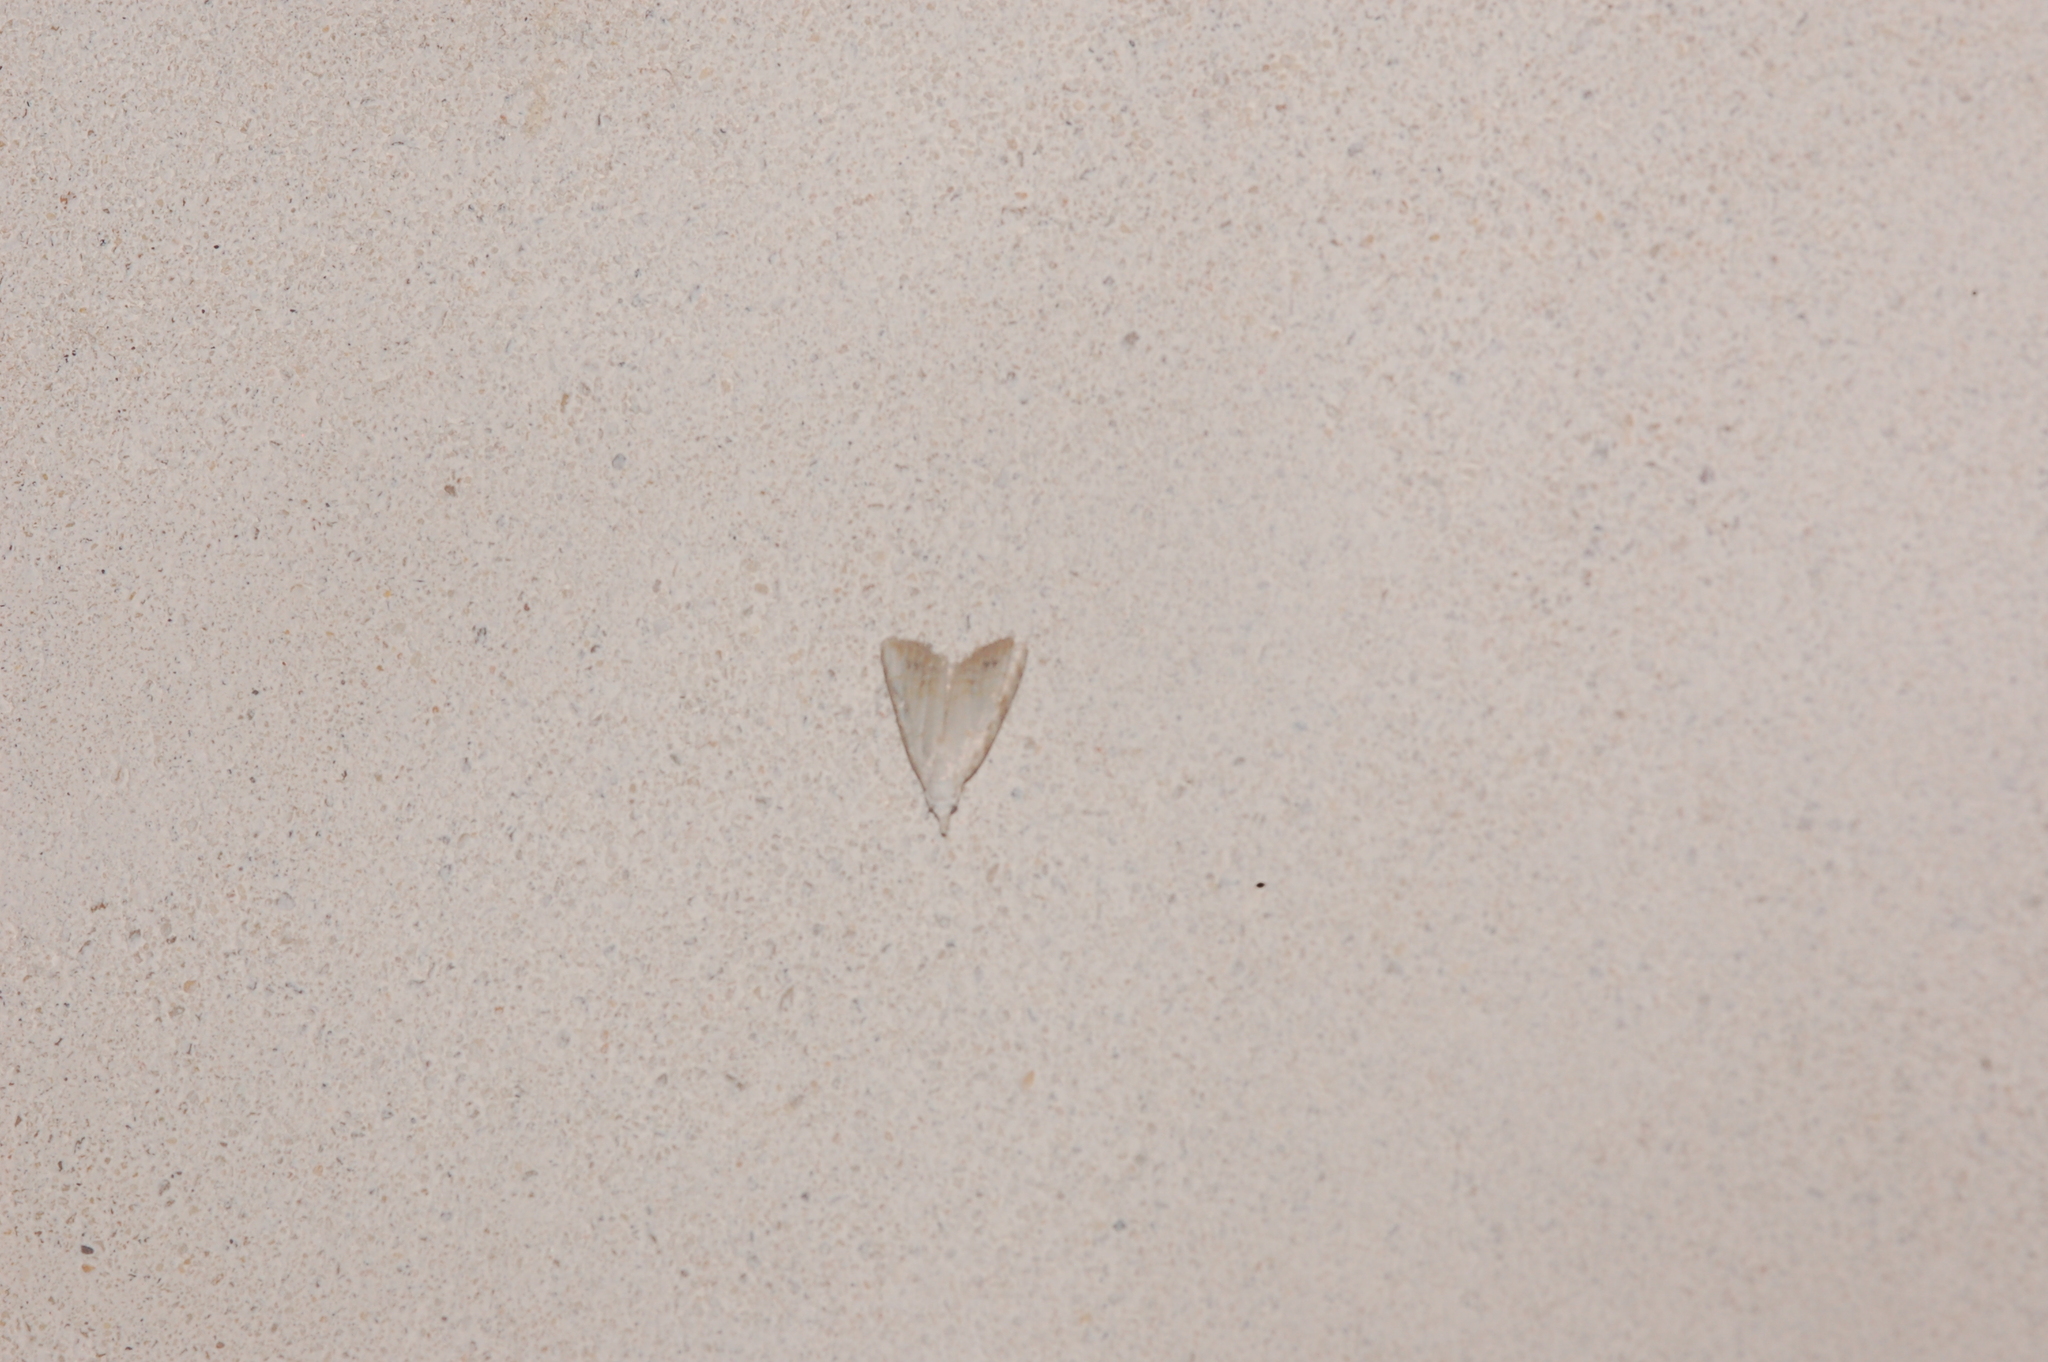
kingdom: Animalia
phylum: Arthropoda
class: Insecta
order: Lepidoptera
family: Nolidae
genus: Nola
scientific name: Nola cereella
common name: Sorghum webworm moth
